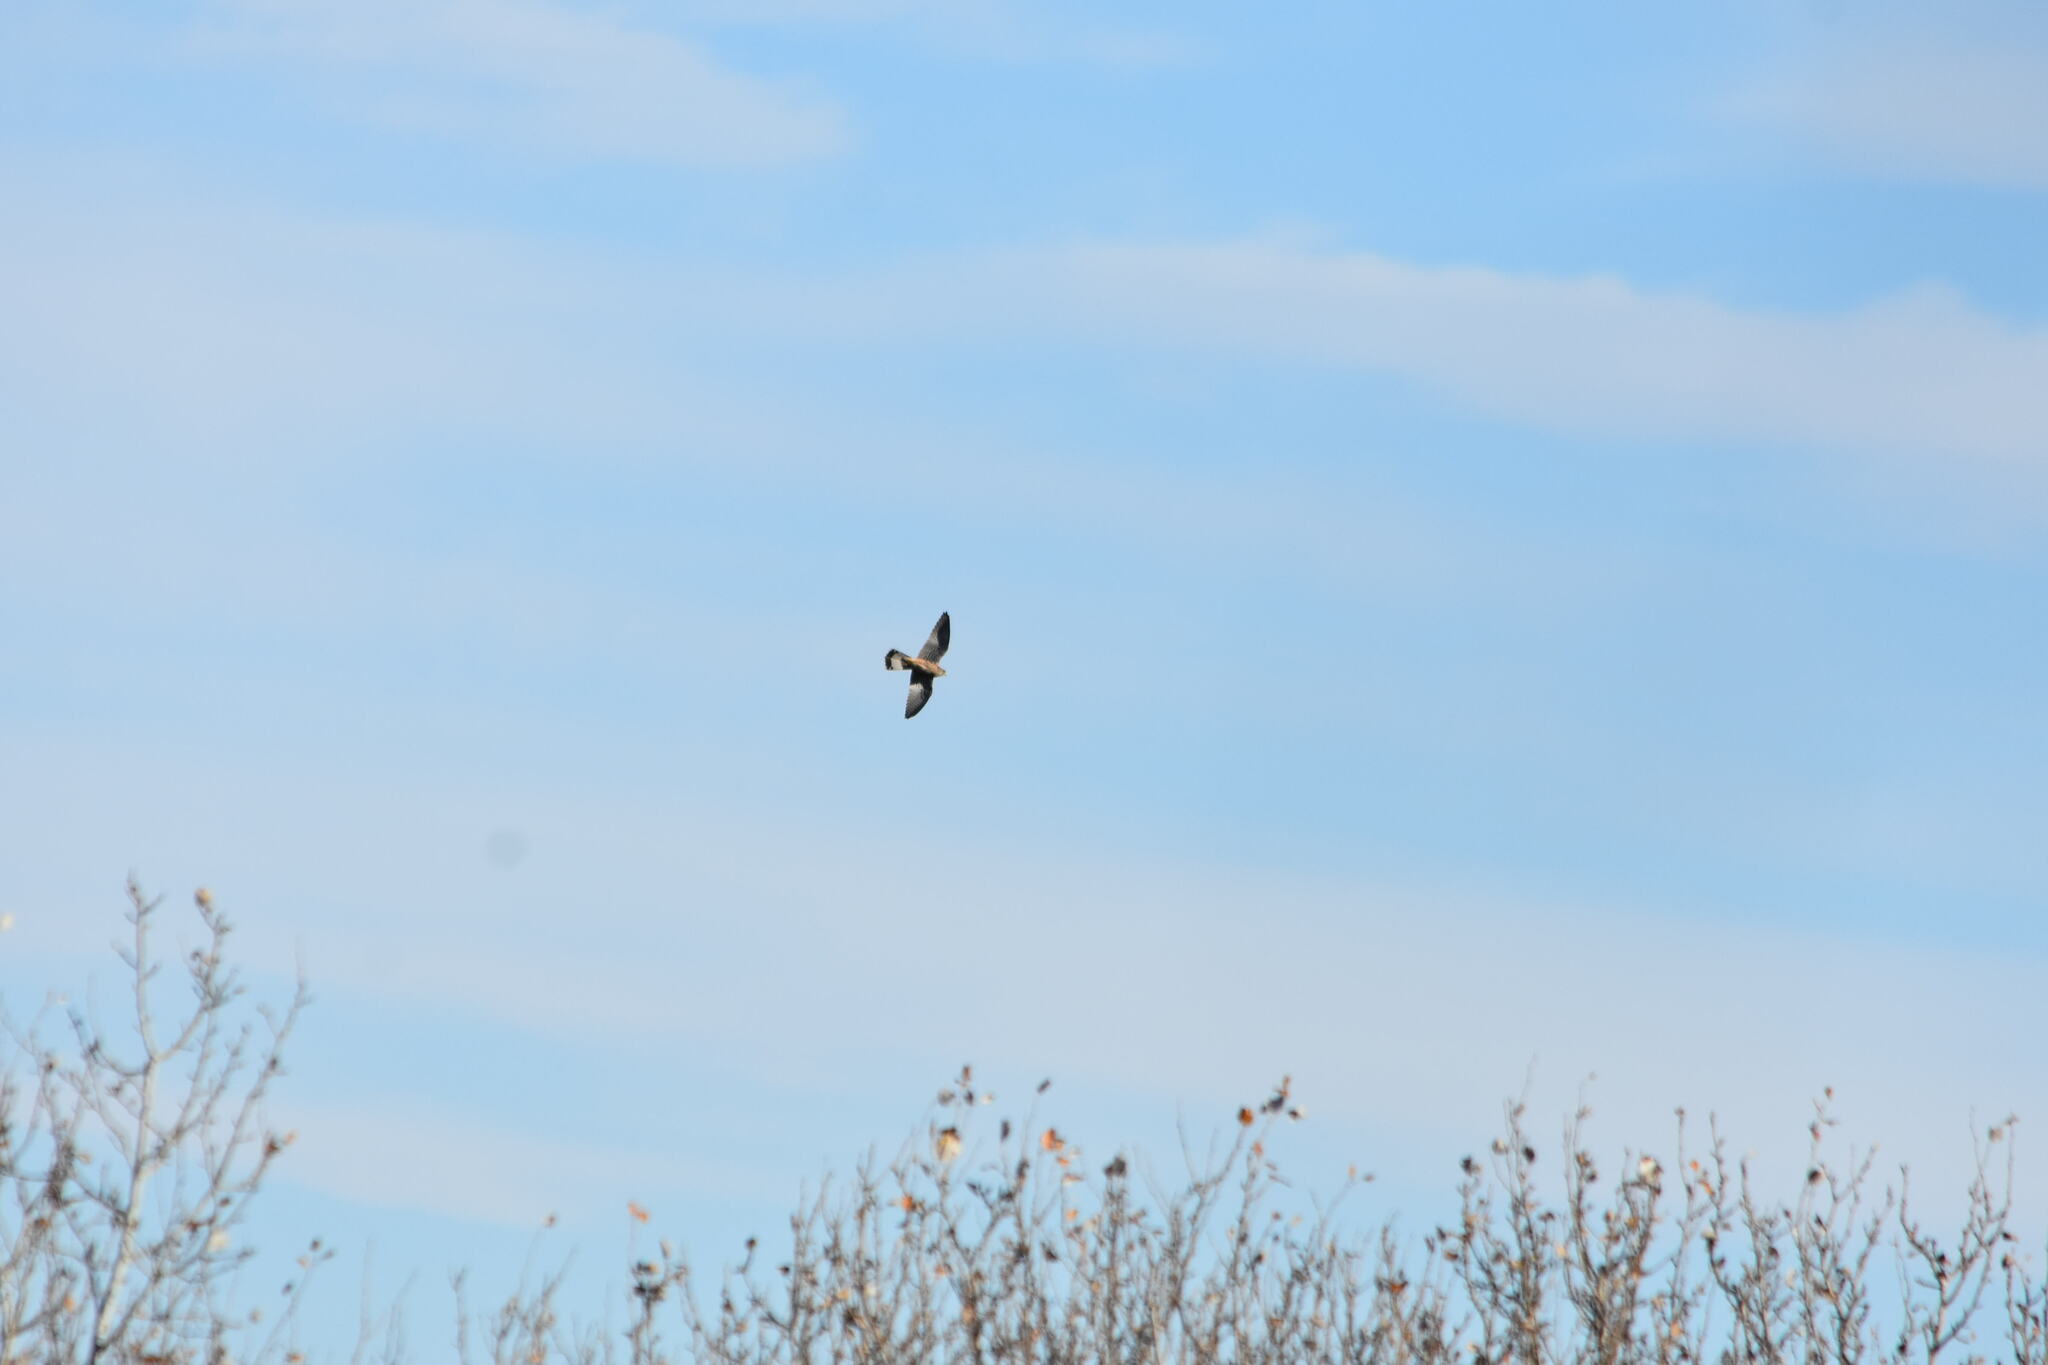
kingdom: Animalia
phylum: Chordata
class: Aves
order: Falconiformes
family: Falconidae
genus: Falco
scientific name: Falco tinnunculus
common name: Common kestrel
